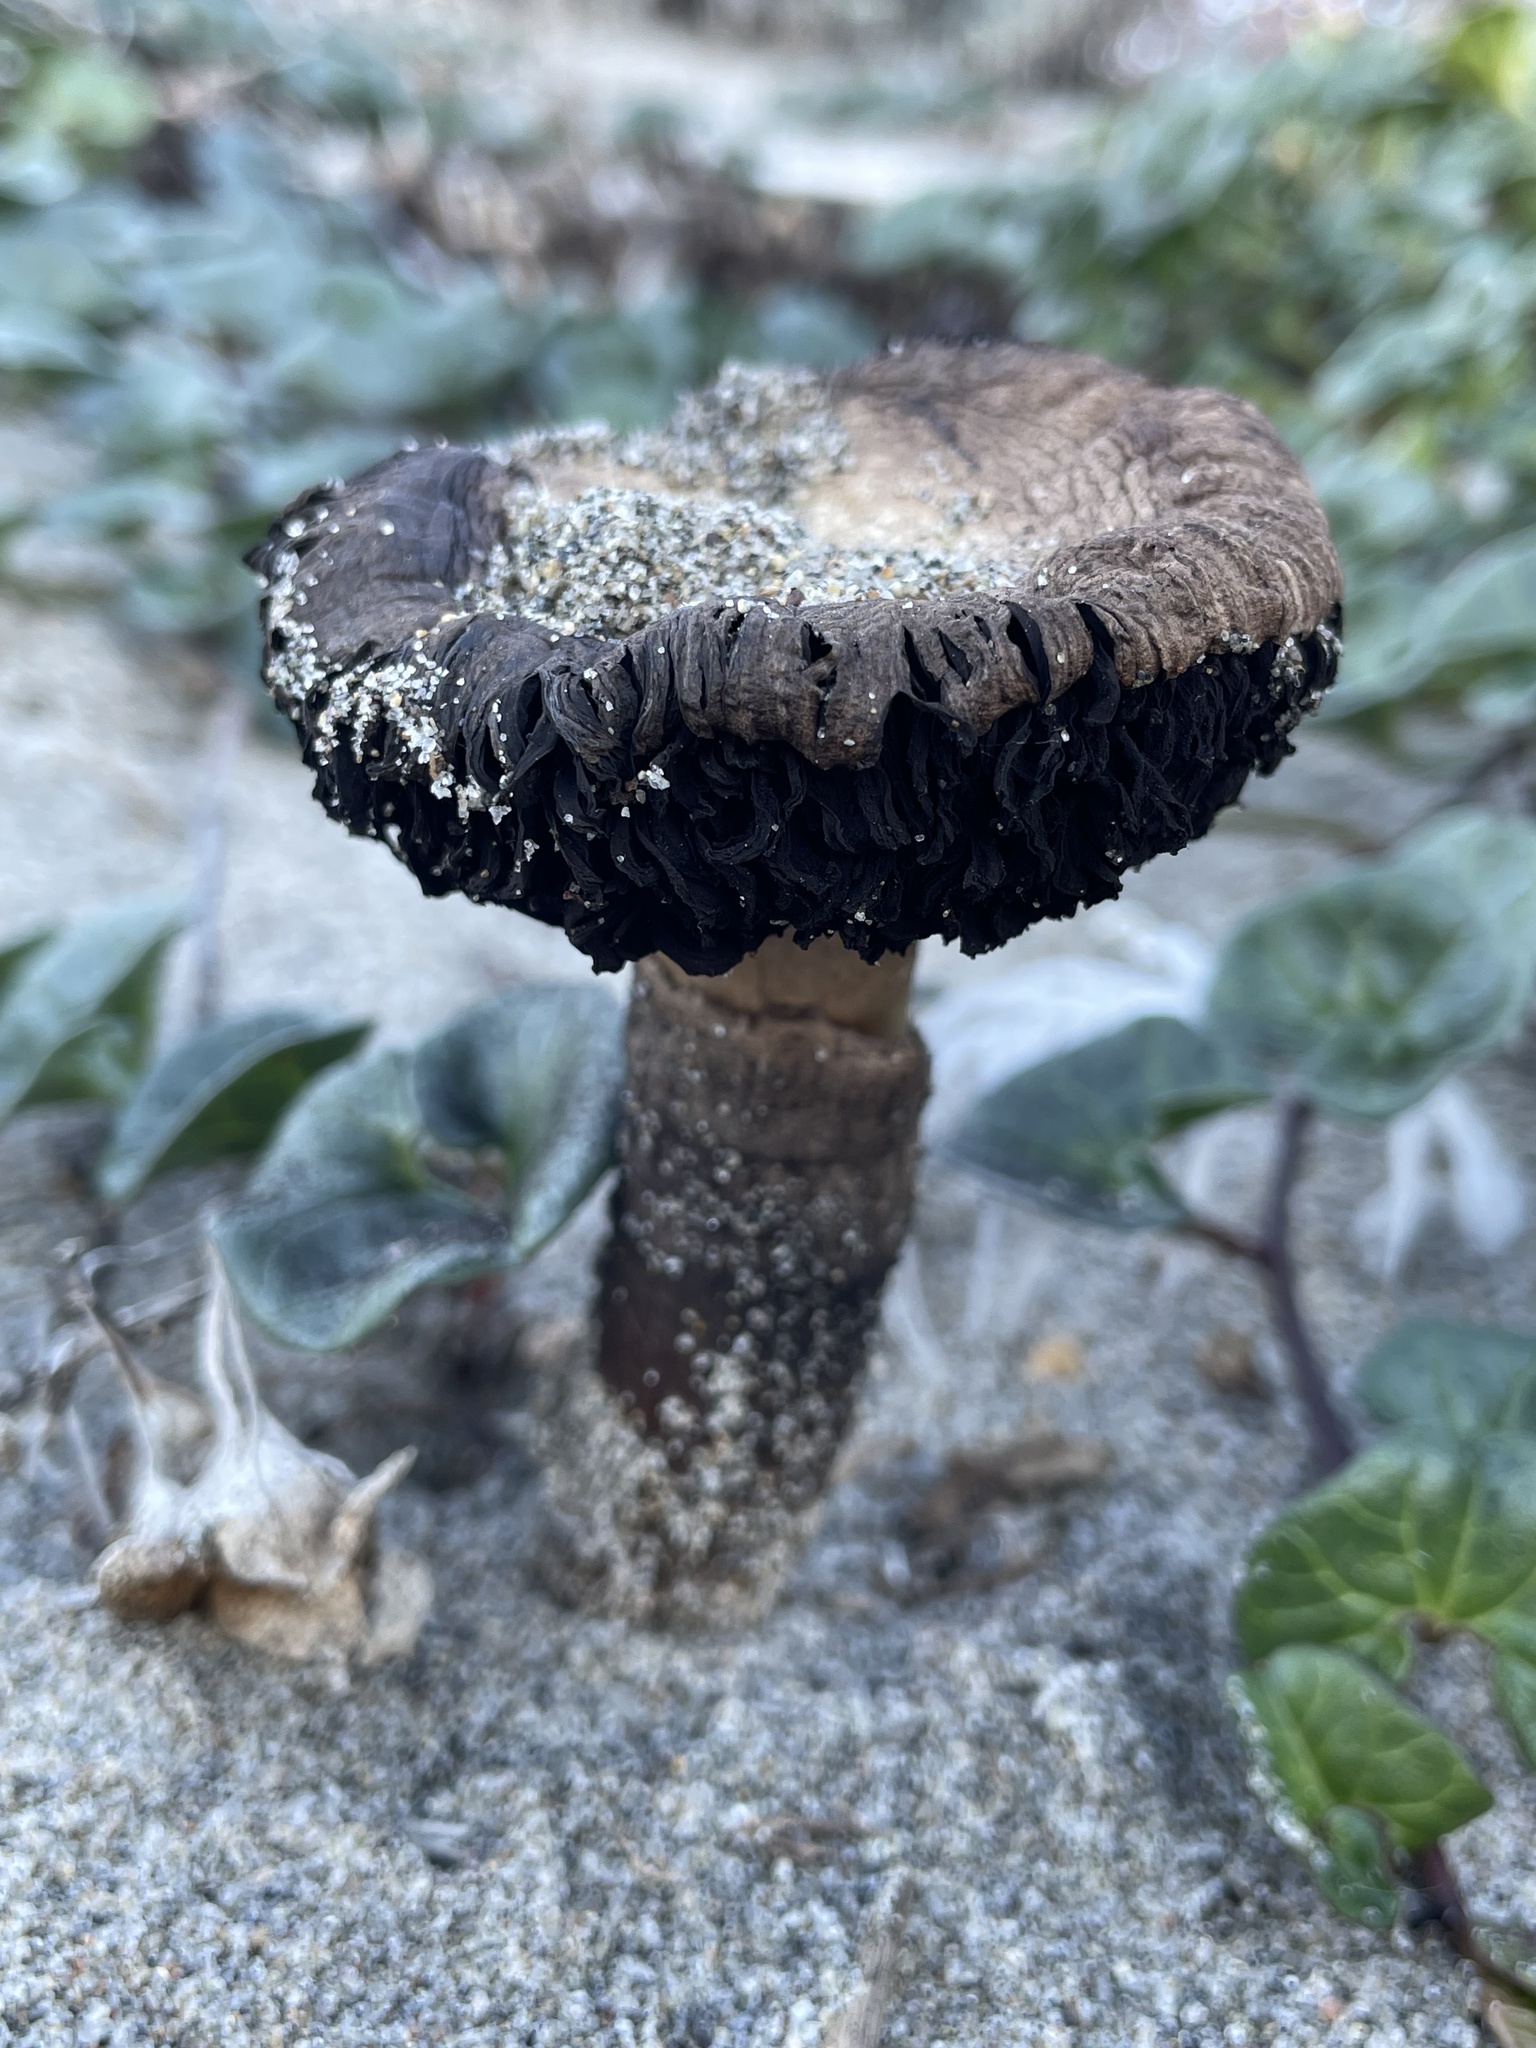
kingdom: Fungi
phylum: Basidiomycota
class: Agaricomycetes
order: Agaricales
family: Agaricaceae
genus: Agaricus
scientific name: Agaricus aridicola
